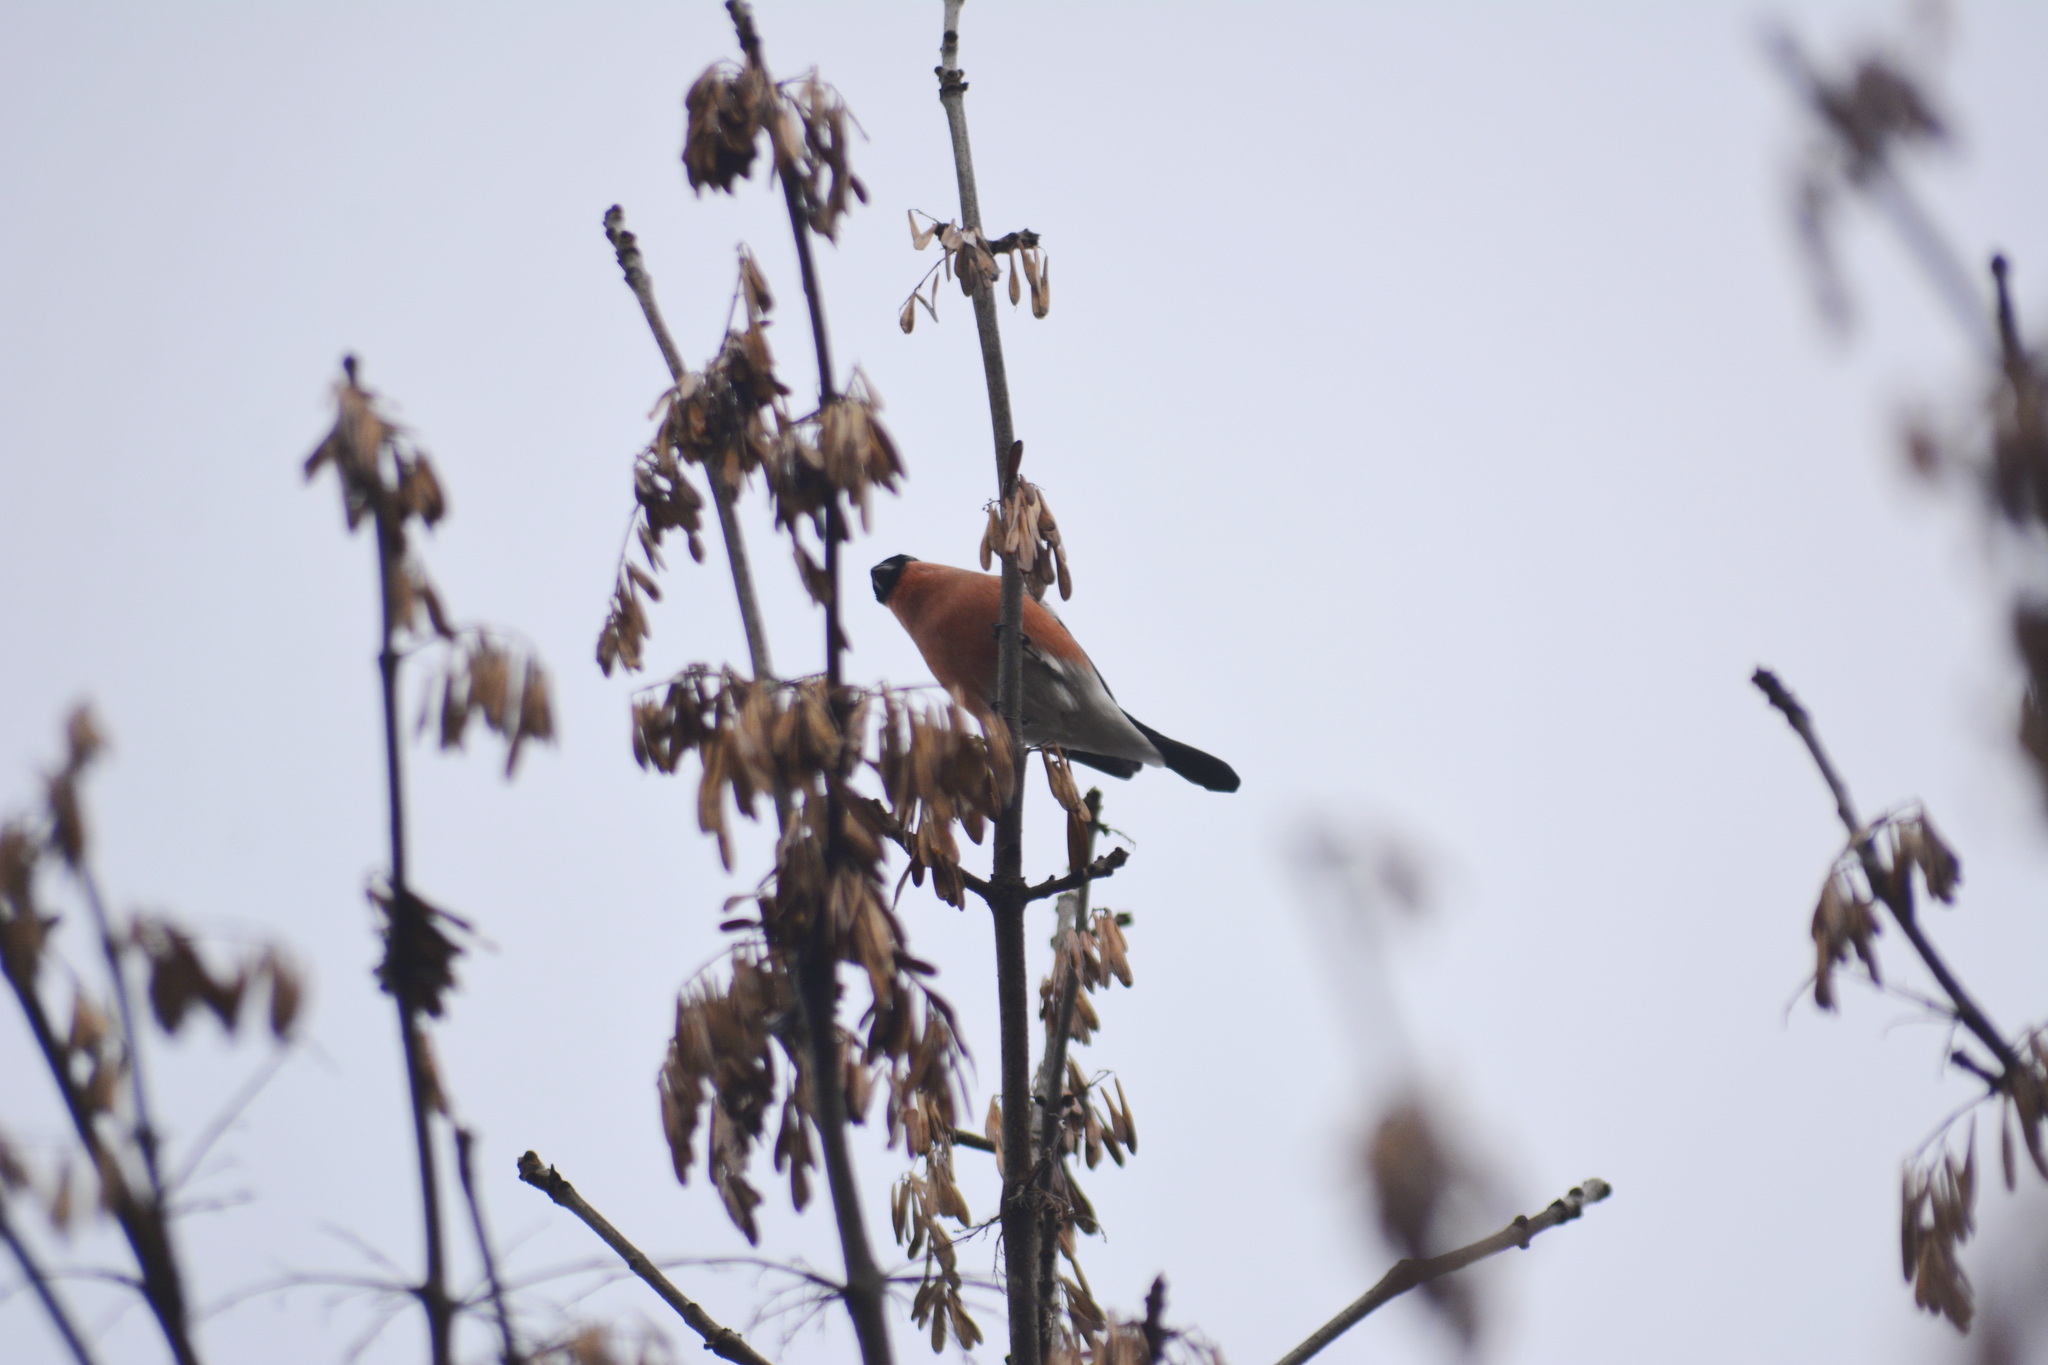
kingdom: Animalia
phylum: Chordata
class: Aves
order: Passeriformes
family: Fringillidae
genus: Pyrrhula
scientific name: Pyrrhula pyrrhula
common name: Eurasian bullfinch
